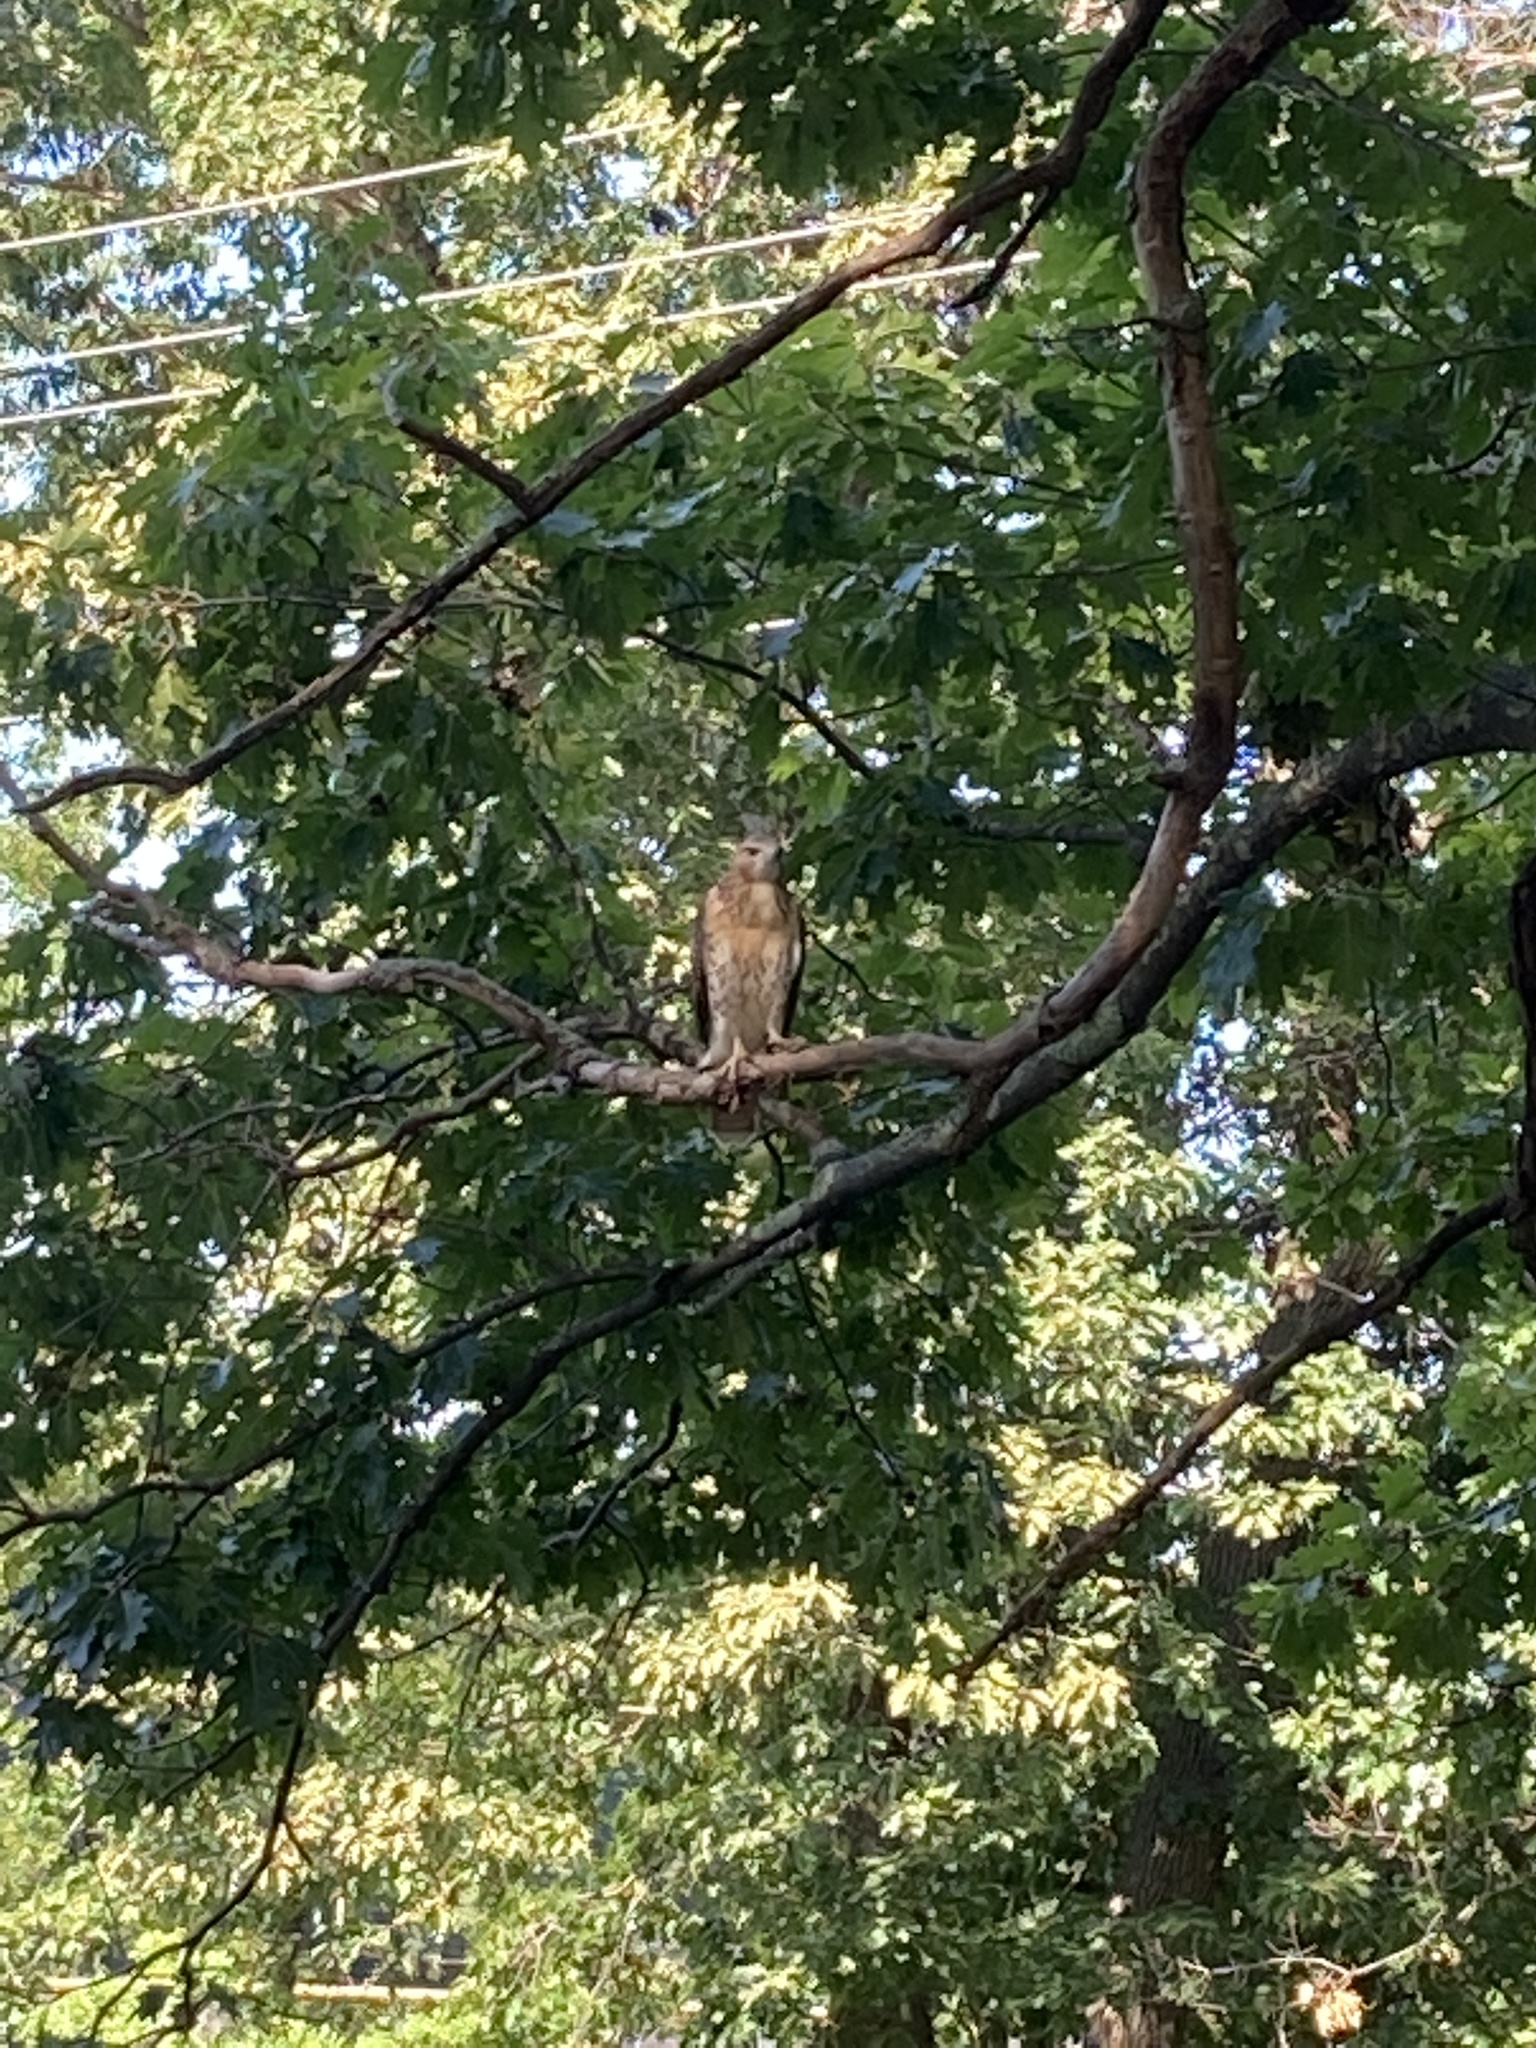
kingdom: Animalia
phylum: Chordata
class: Aves
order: Accipitriformes
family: Accipitridae
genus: Buteo
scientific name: Buteo jamaicensis
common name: Red-tailed hawk
